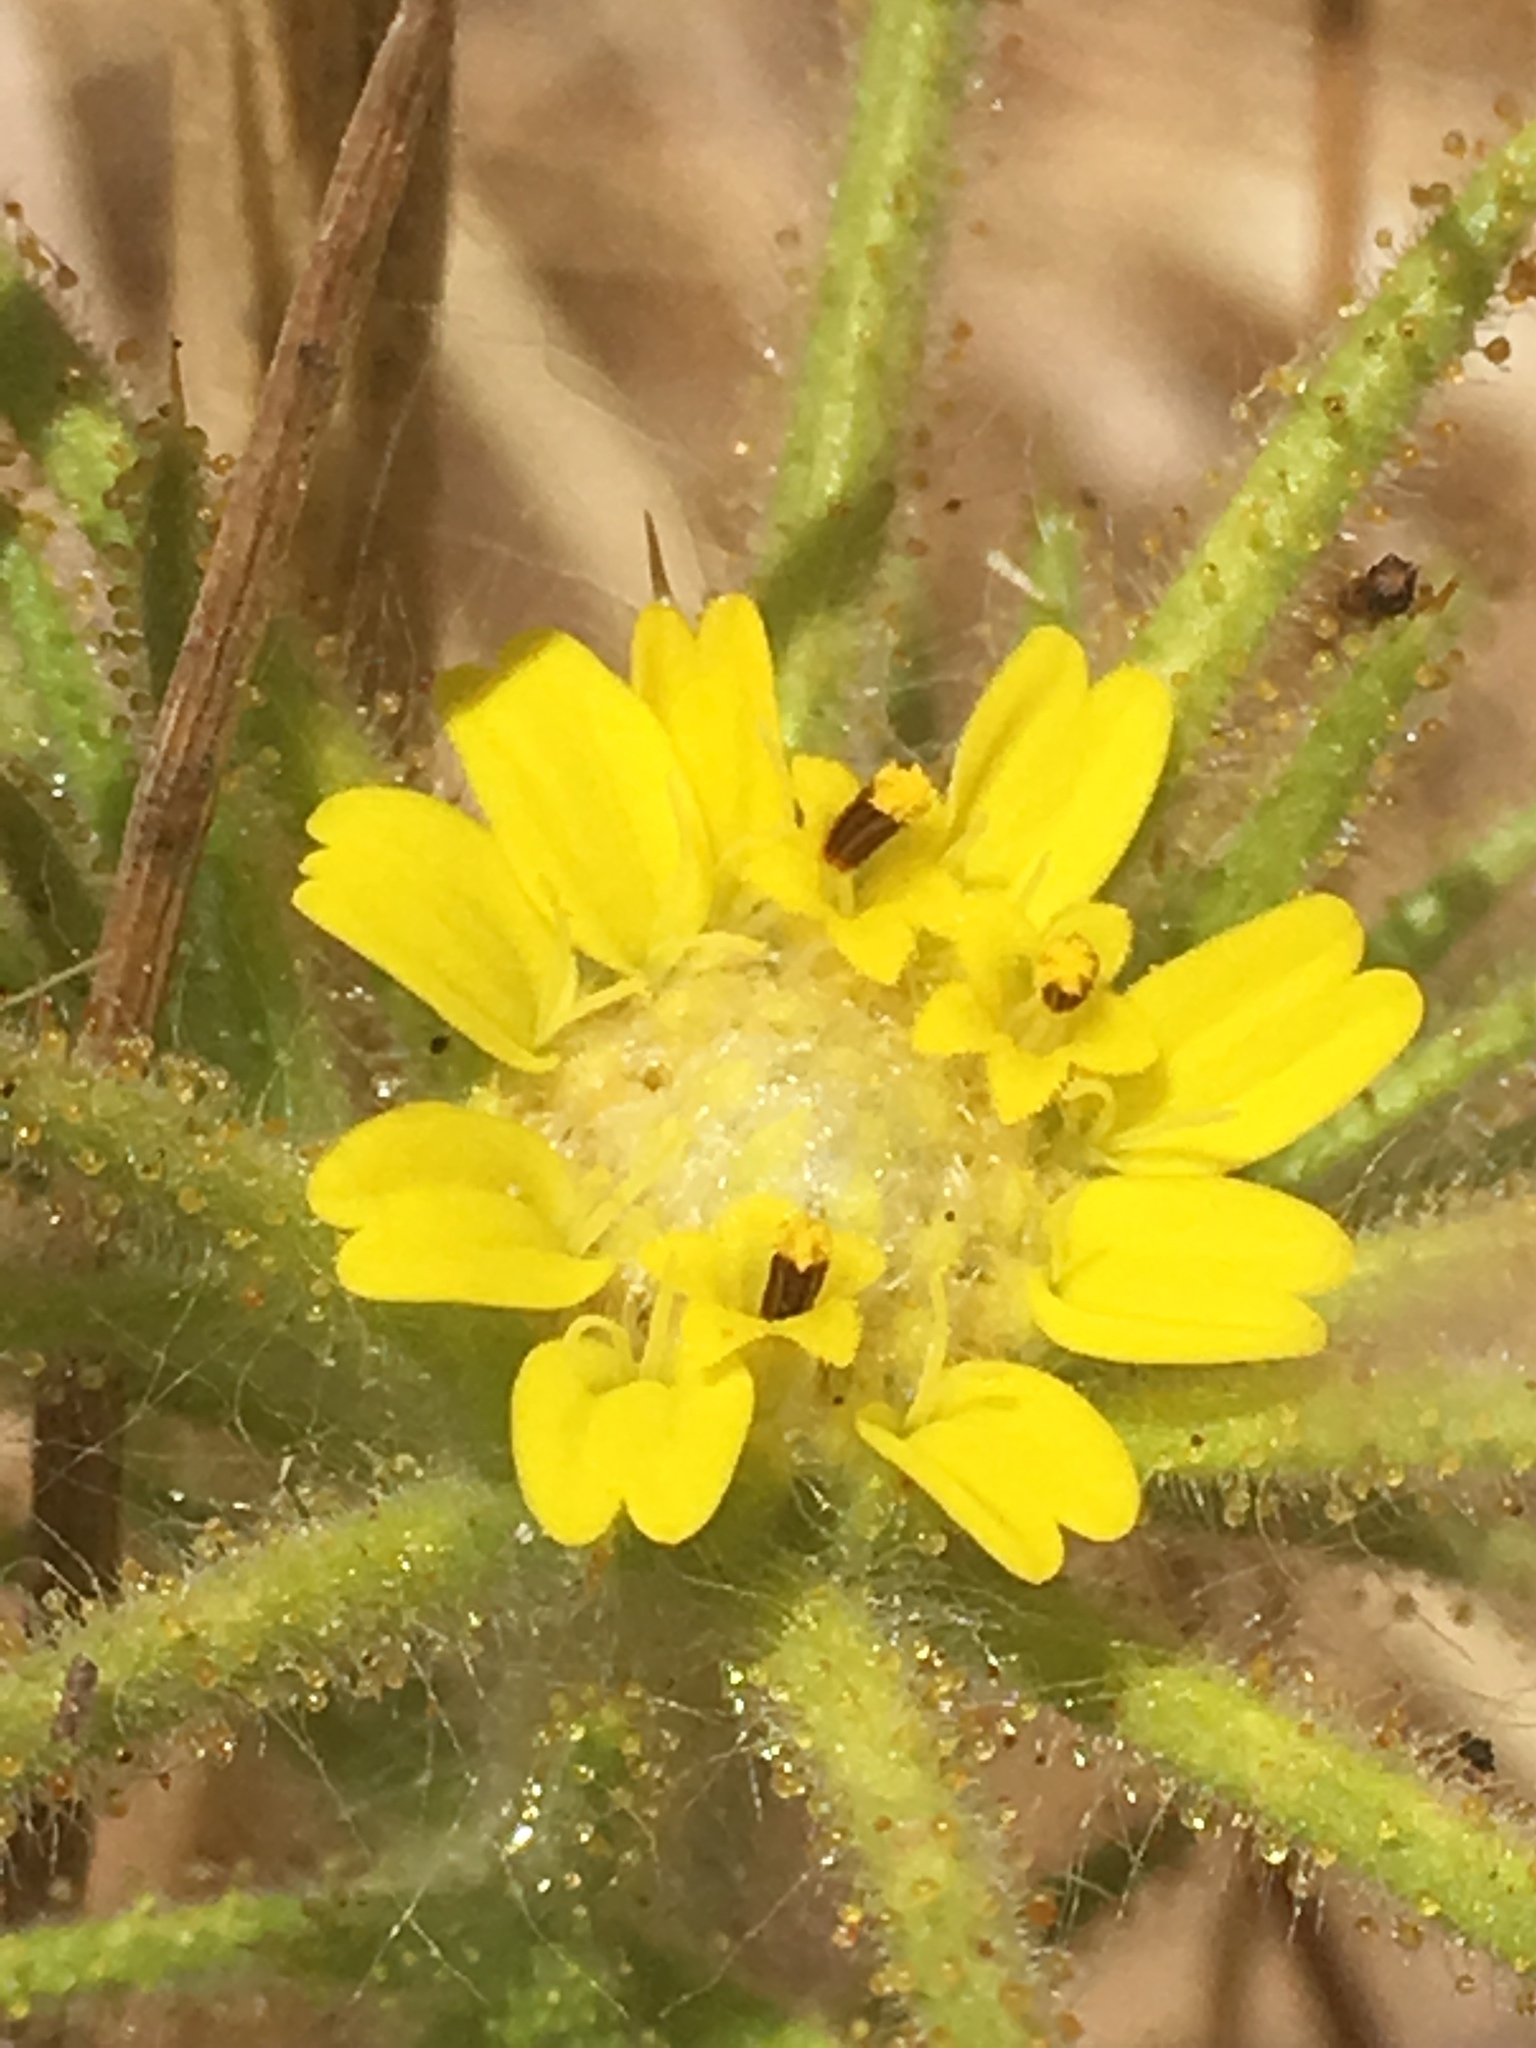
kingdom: Plantae
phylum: Tracheophyta
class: Magnoliopsida
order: Asterales
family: Asteraceae
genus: Centromadia
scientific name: Centromadia fitchii
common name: Fitch's spikeweed
